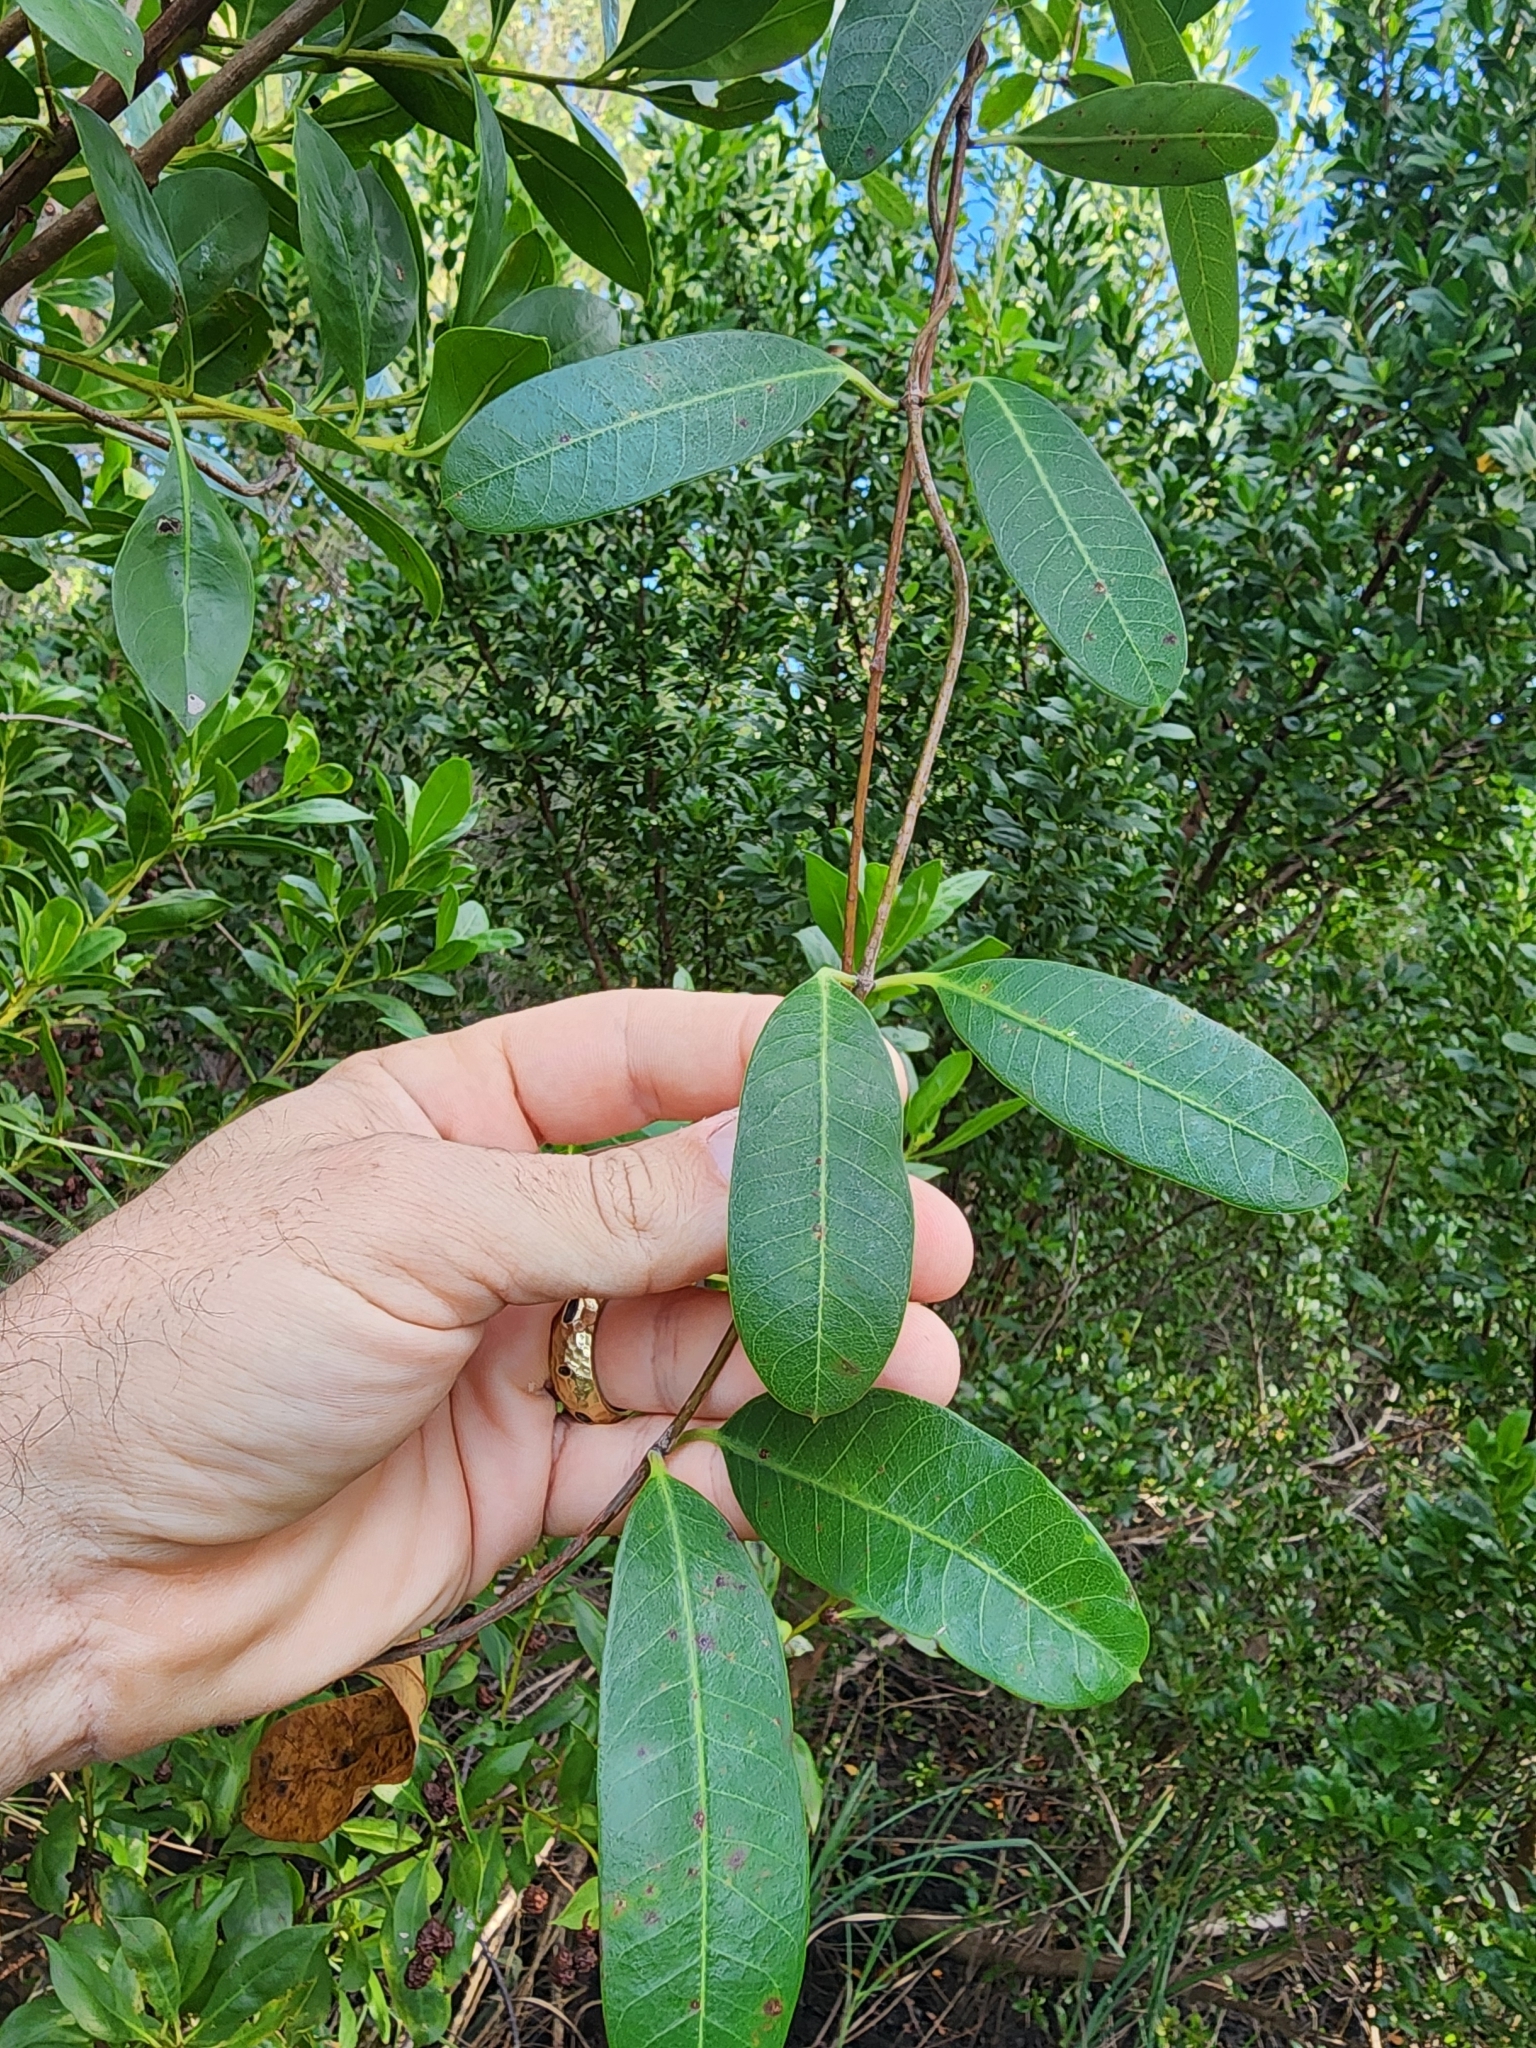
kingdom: Plantae
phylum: Tracheophyta
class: Magnoliopsida
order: Gentianales
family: Apocynaceae
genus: Rhabdadenia
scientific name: Rhabdadenia biflora
